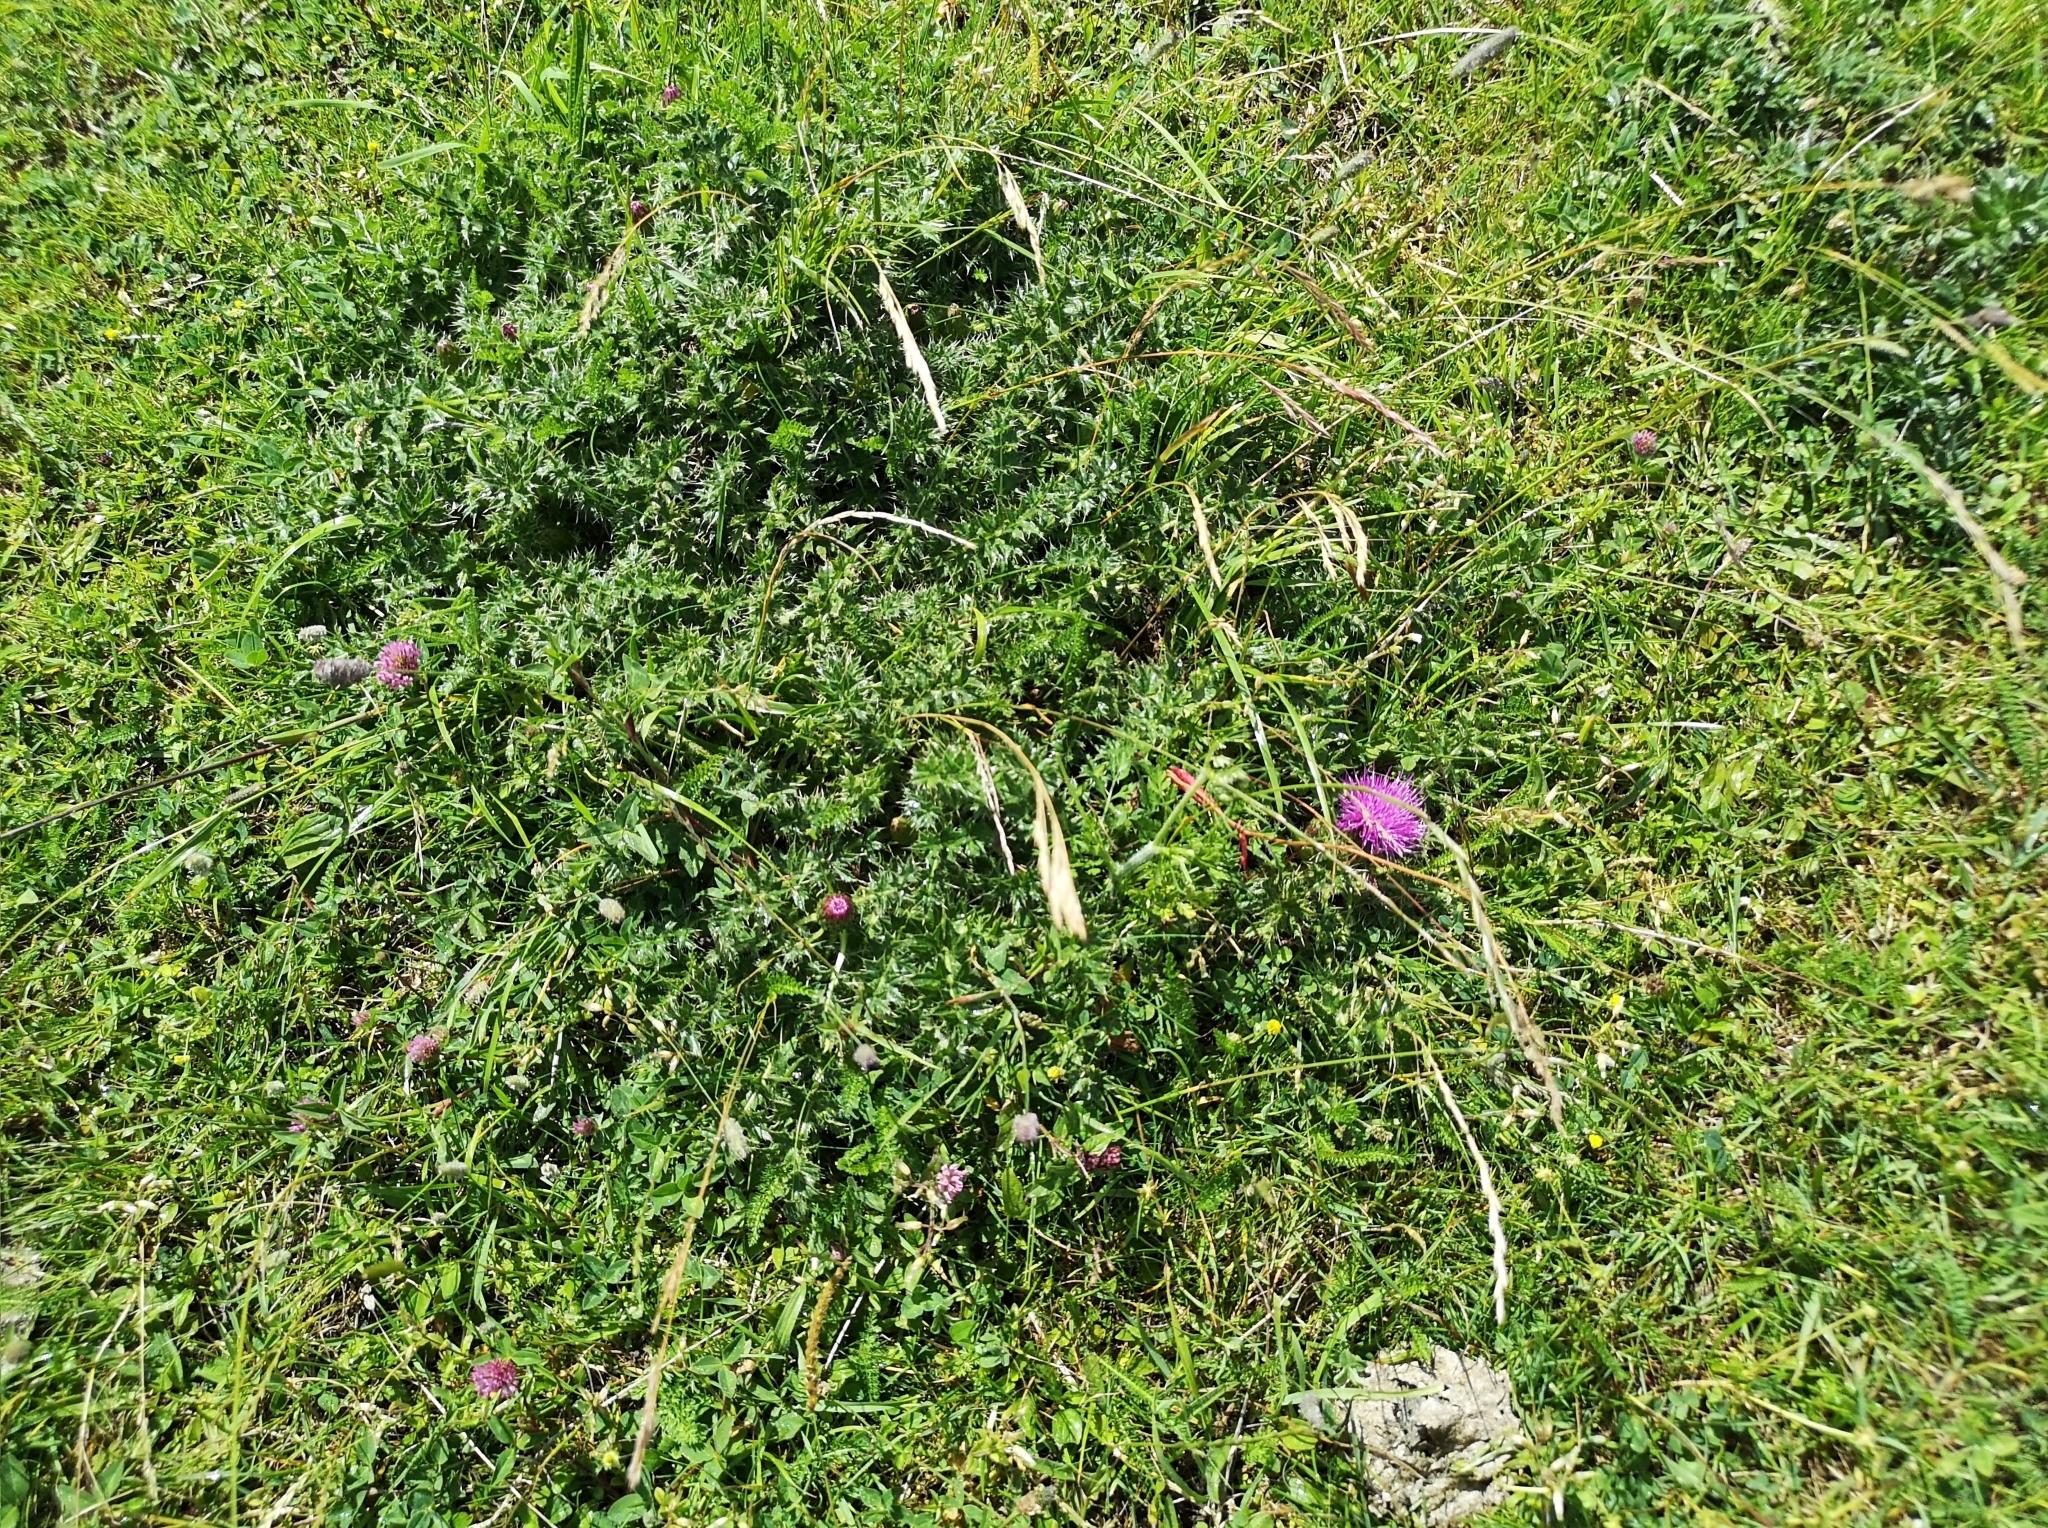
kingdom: Plantae
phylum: Tracheophyta
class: Magnoliopsida
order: Asterales
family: Asteraceae
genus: Cirsium
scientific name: Cirsium acaulon
